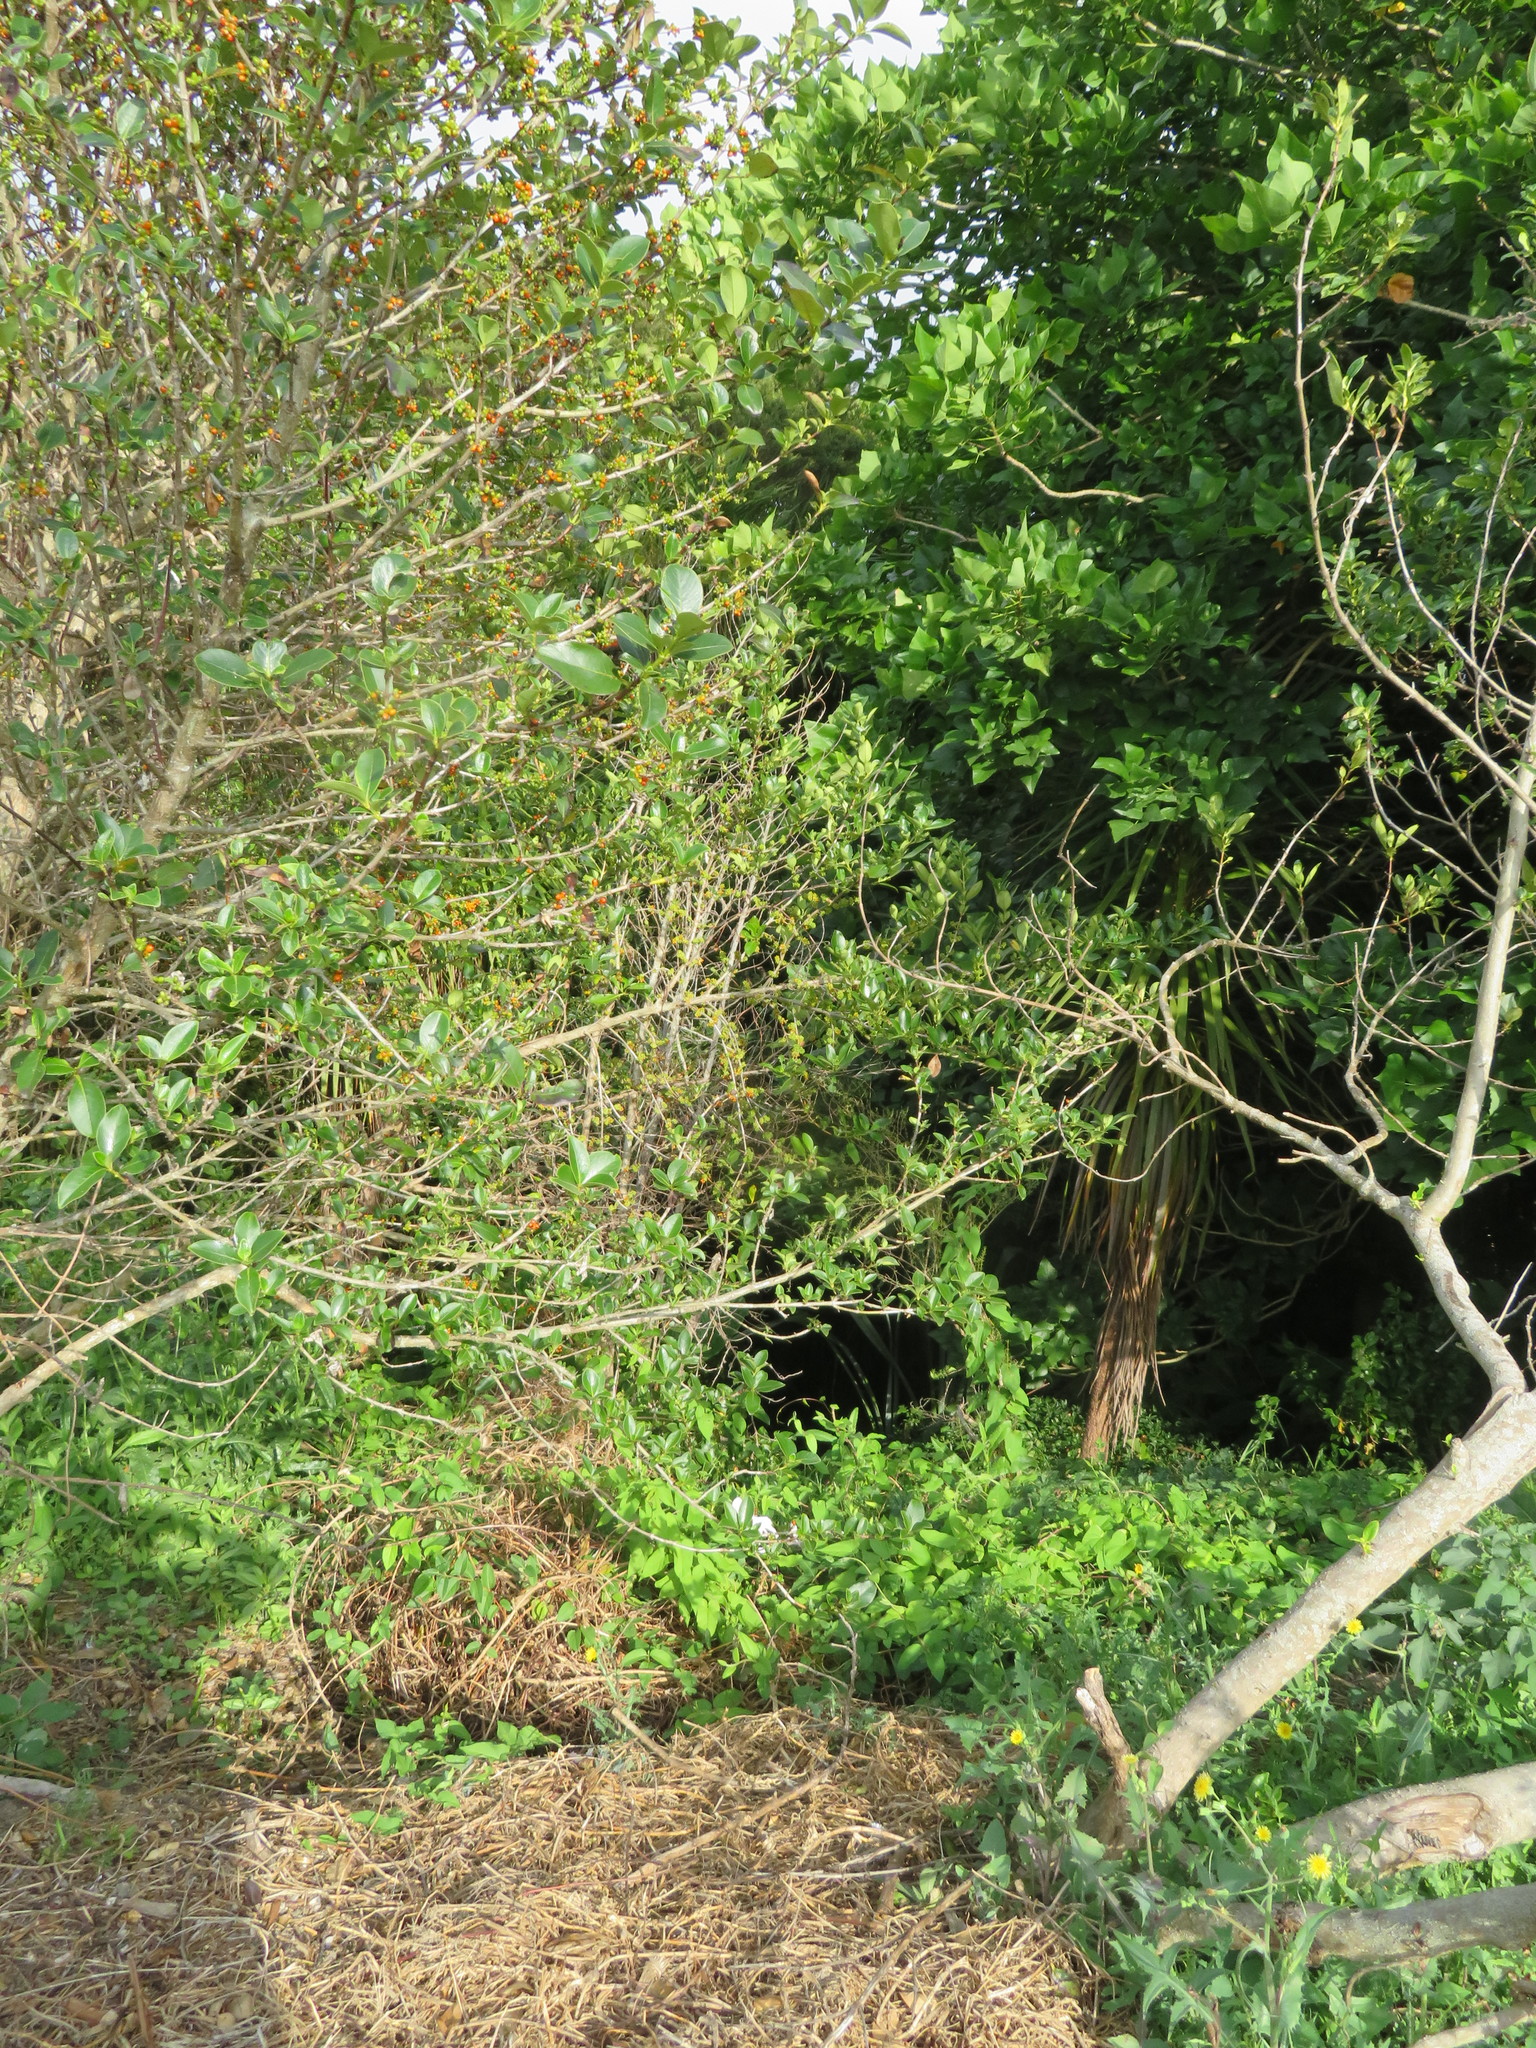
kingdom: Plantae
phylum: Tracheophyta
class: Magnoliopsida
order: Gentianales
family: Rubiaceae
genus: Coprosma
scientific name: Coprosma robusta
